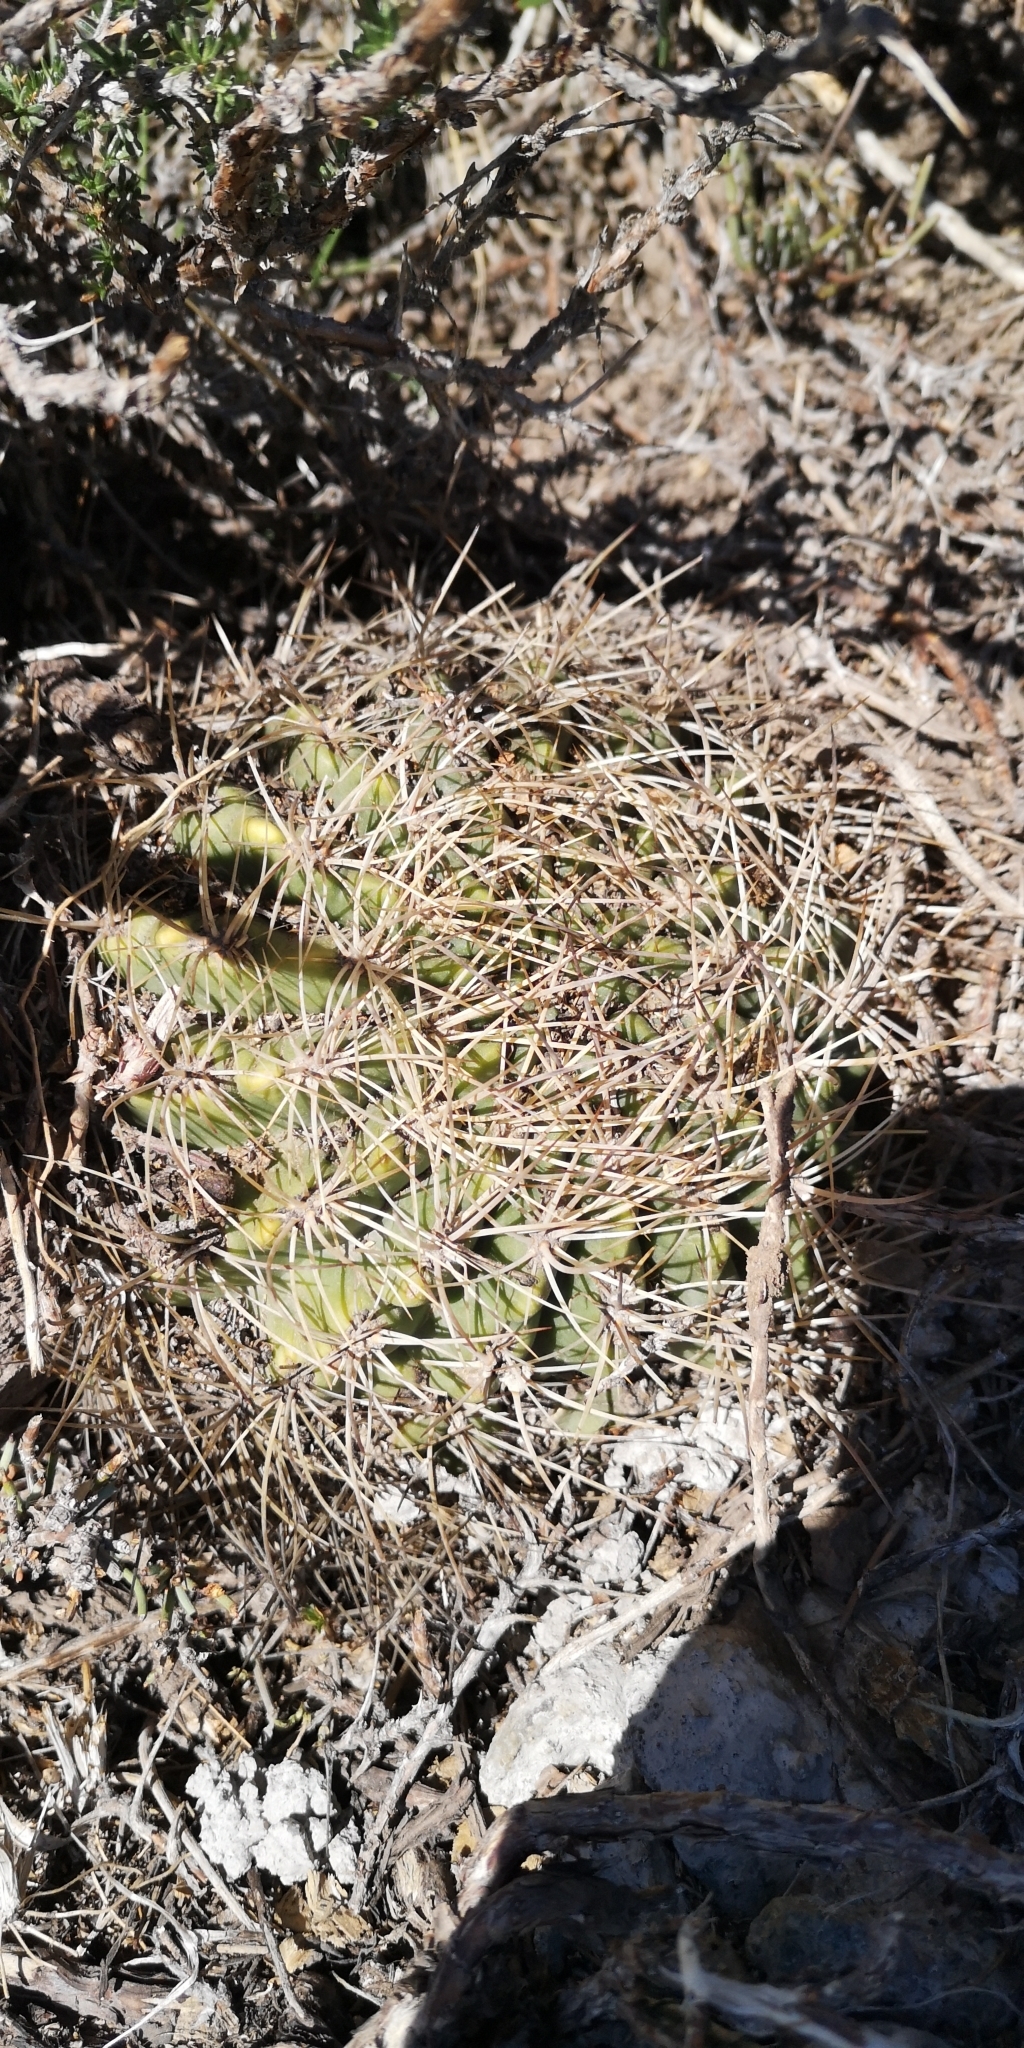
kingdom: Plantae
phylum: Tracheophyta
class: Magnoliopsida
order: Caryophyllales
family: Cactaceae
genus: Eriosyce
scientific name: Eriosyce curvispina
